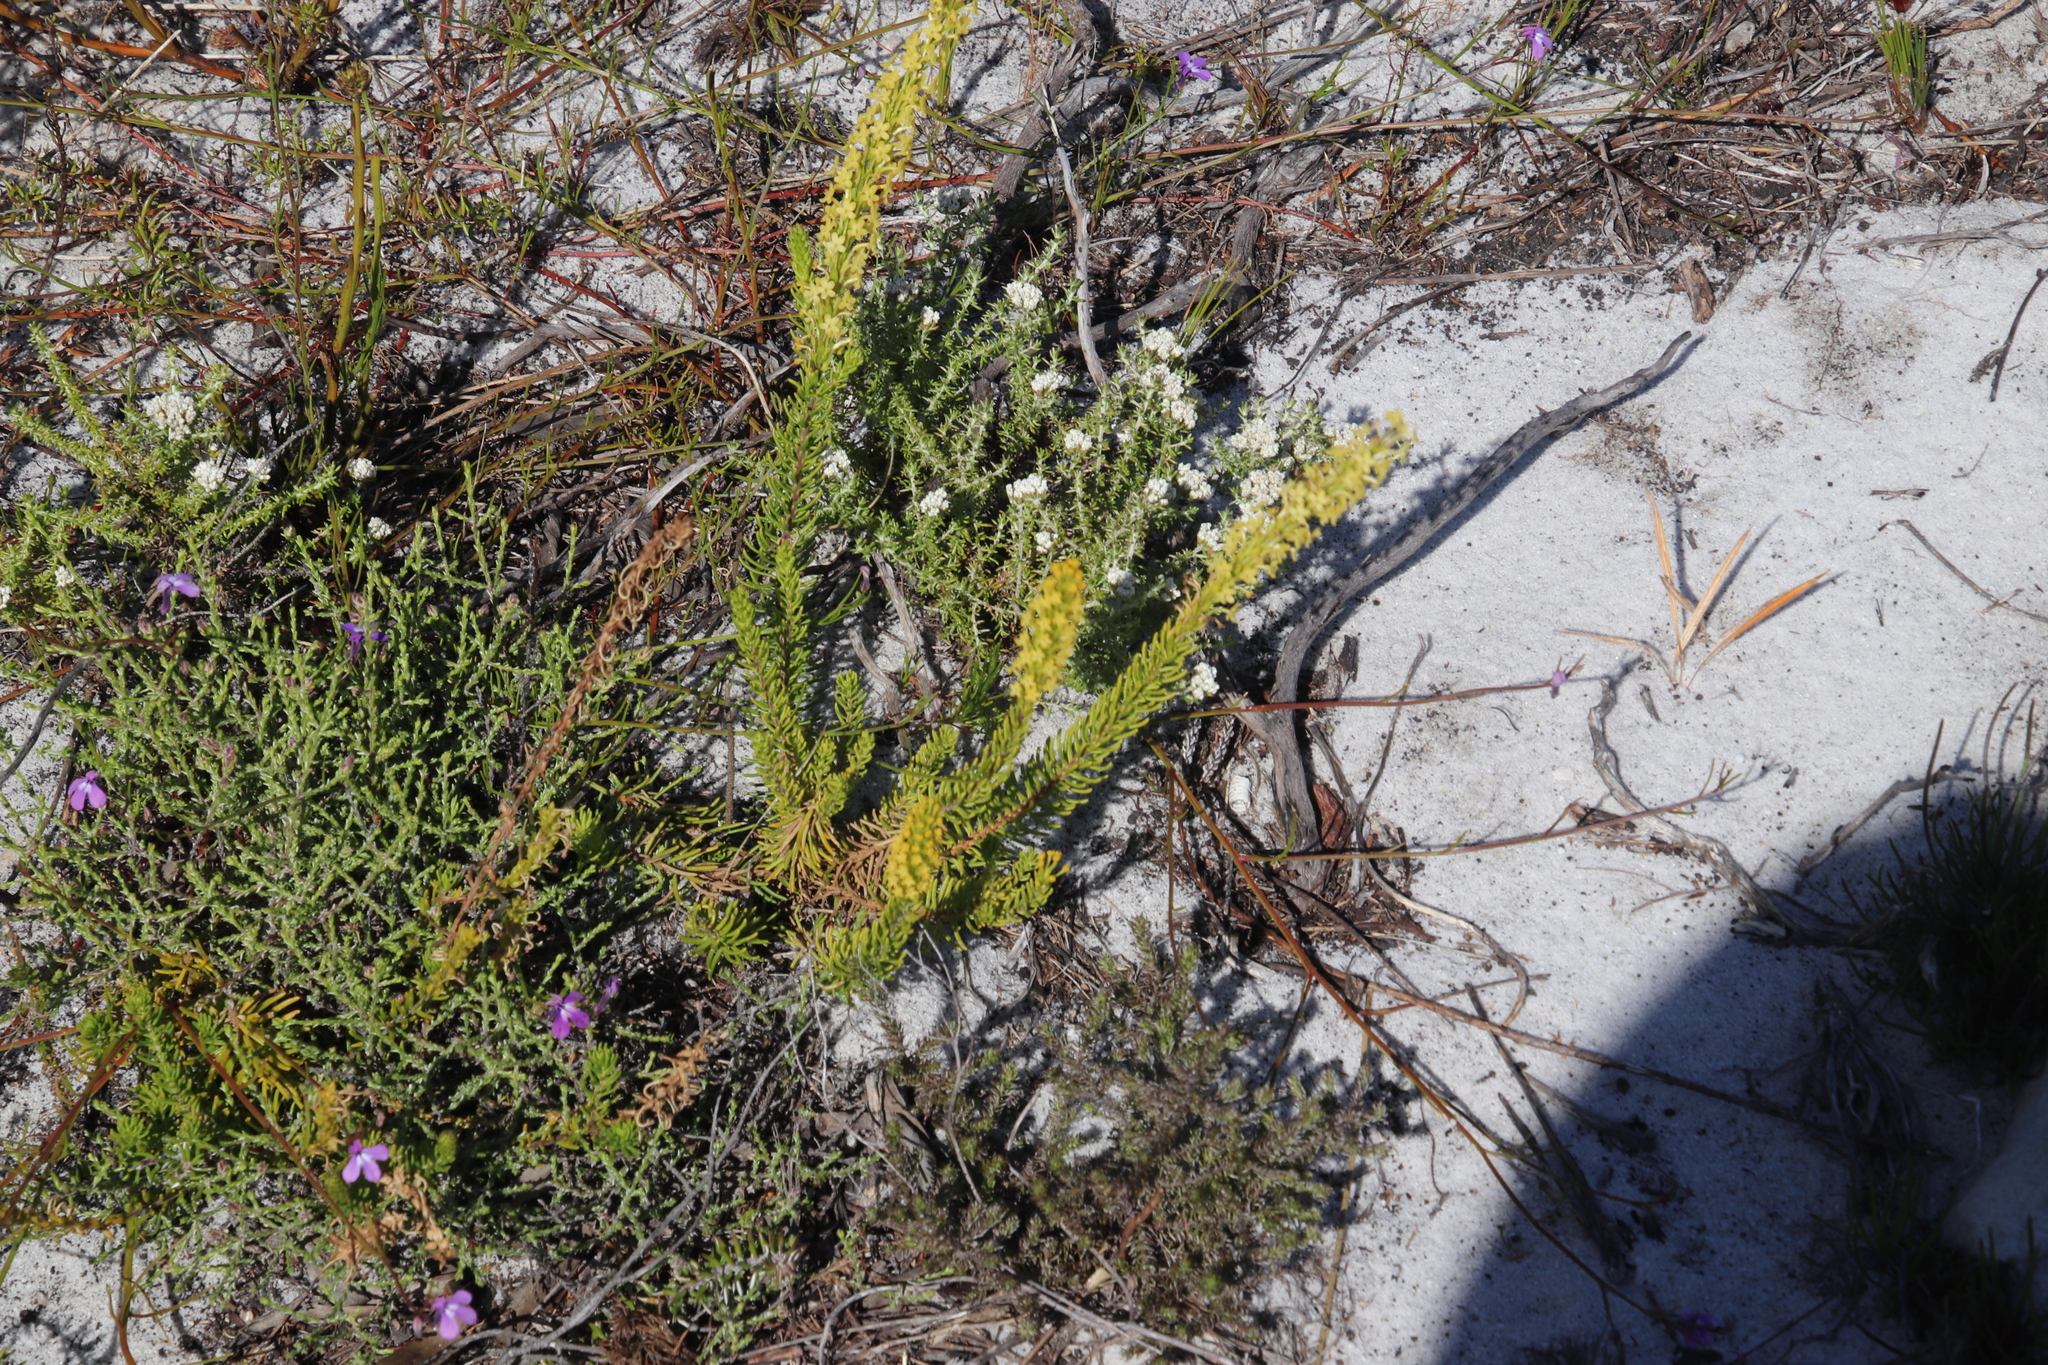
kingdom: Plantae
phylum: Tracheophyta
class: Magnoliopsida
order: Lamiales
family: Scrophulariaceae
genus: Microdon
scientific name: Microdon dubius
